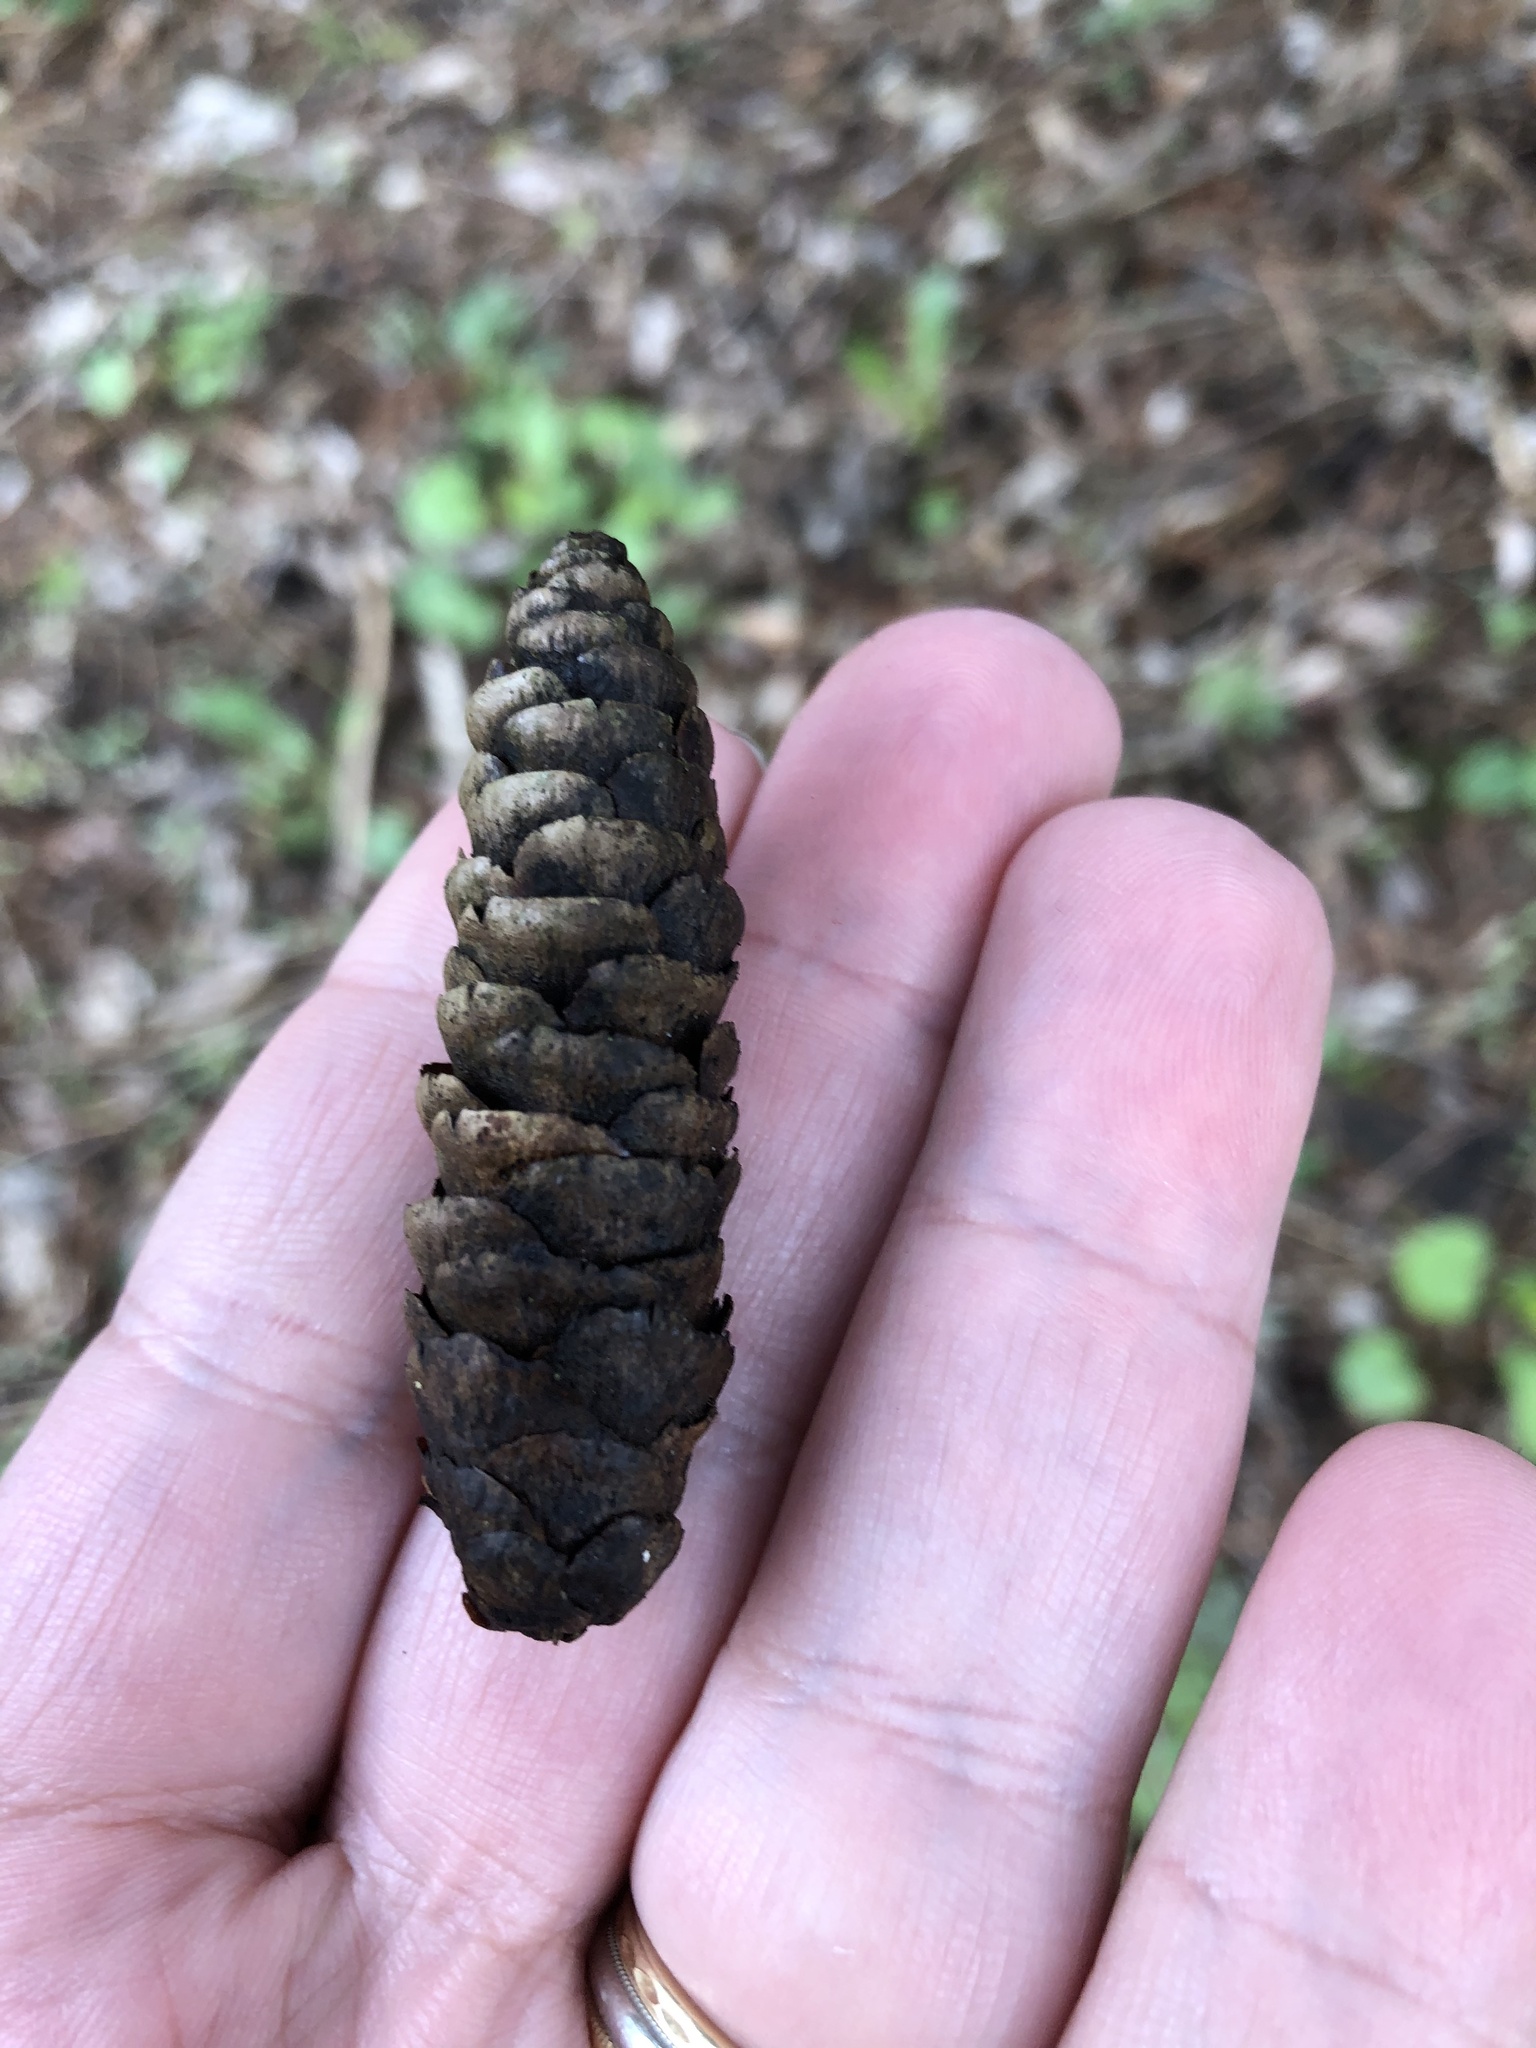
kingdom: Plantae
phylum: Tracheophyta
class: Pinopsida
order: Pinales
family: Pinaceae
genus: Picea
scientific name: Picea glauca
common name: White spruce
